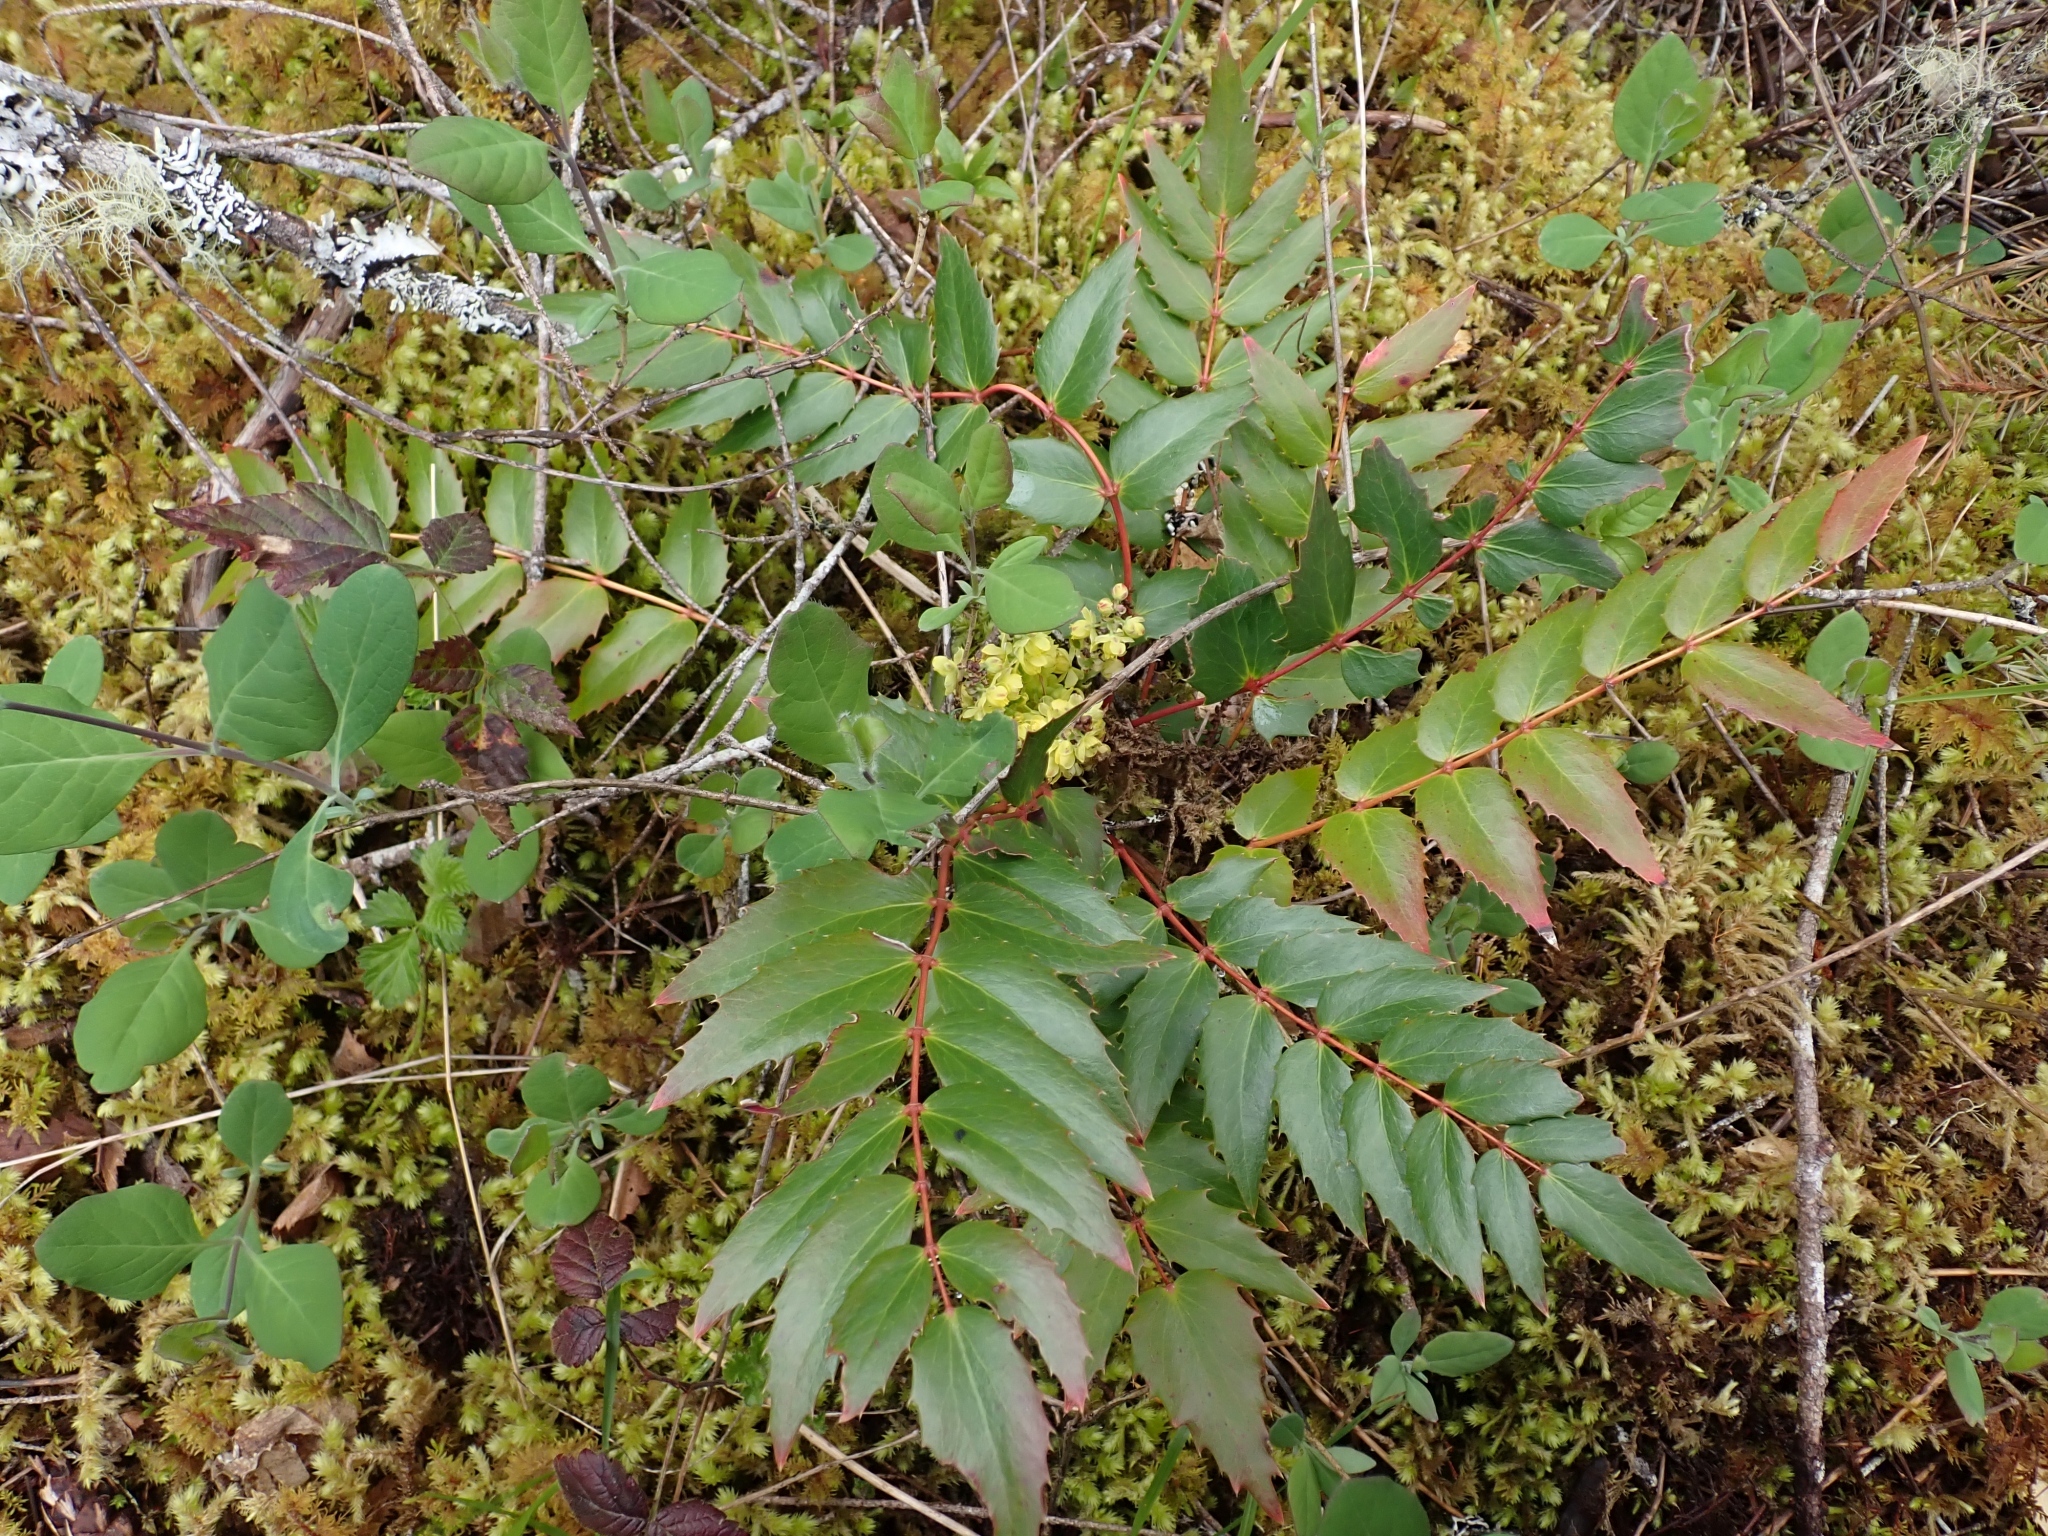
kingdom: Plantae
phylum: Tracheophyta
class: Magnoliopsida
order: Ranunculales
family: Berberidaceae
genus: Mahonia
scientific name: Mahonia nervosa
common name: Cascade oregon-grape
